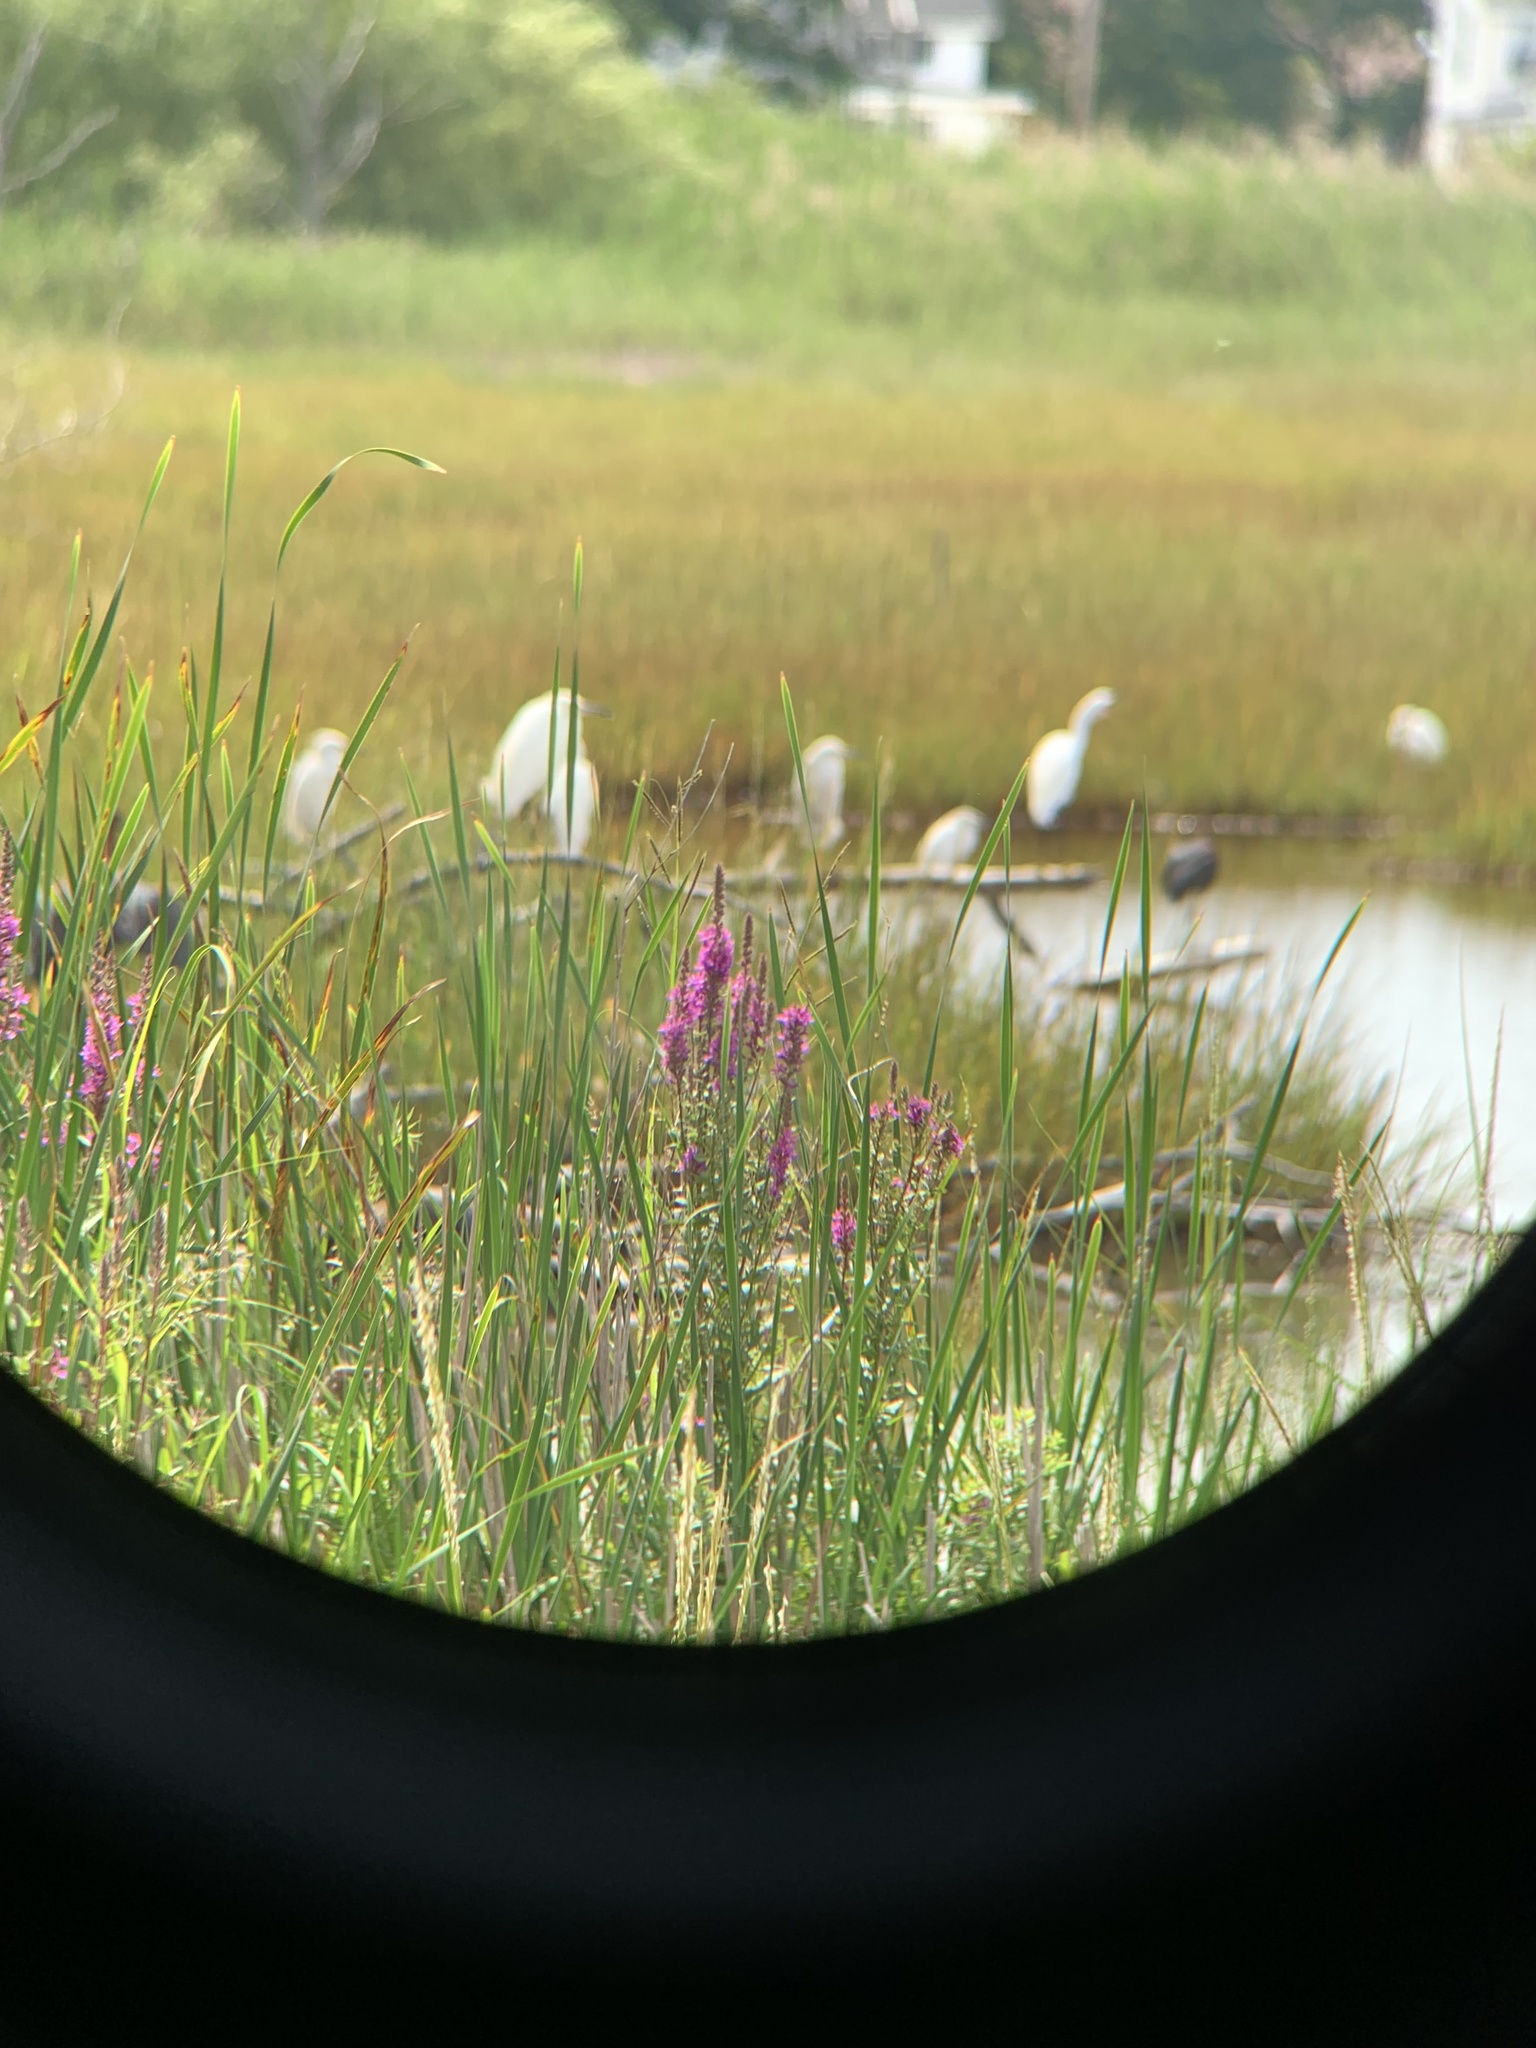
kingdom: Plantae
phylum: Tracheophyta
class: Magnoliopsida
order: Myrtales
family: Lythraceae
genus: Lythrum
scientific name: Lythrum salicaria
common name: Purple loosestrife
